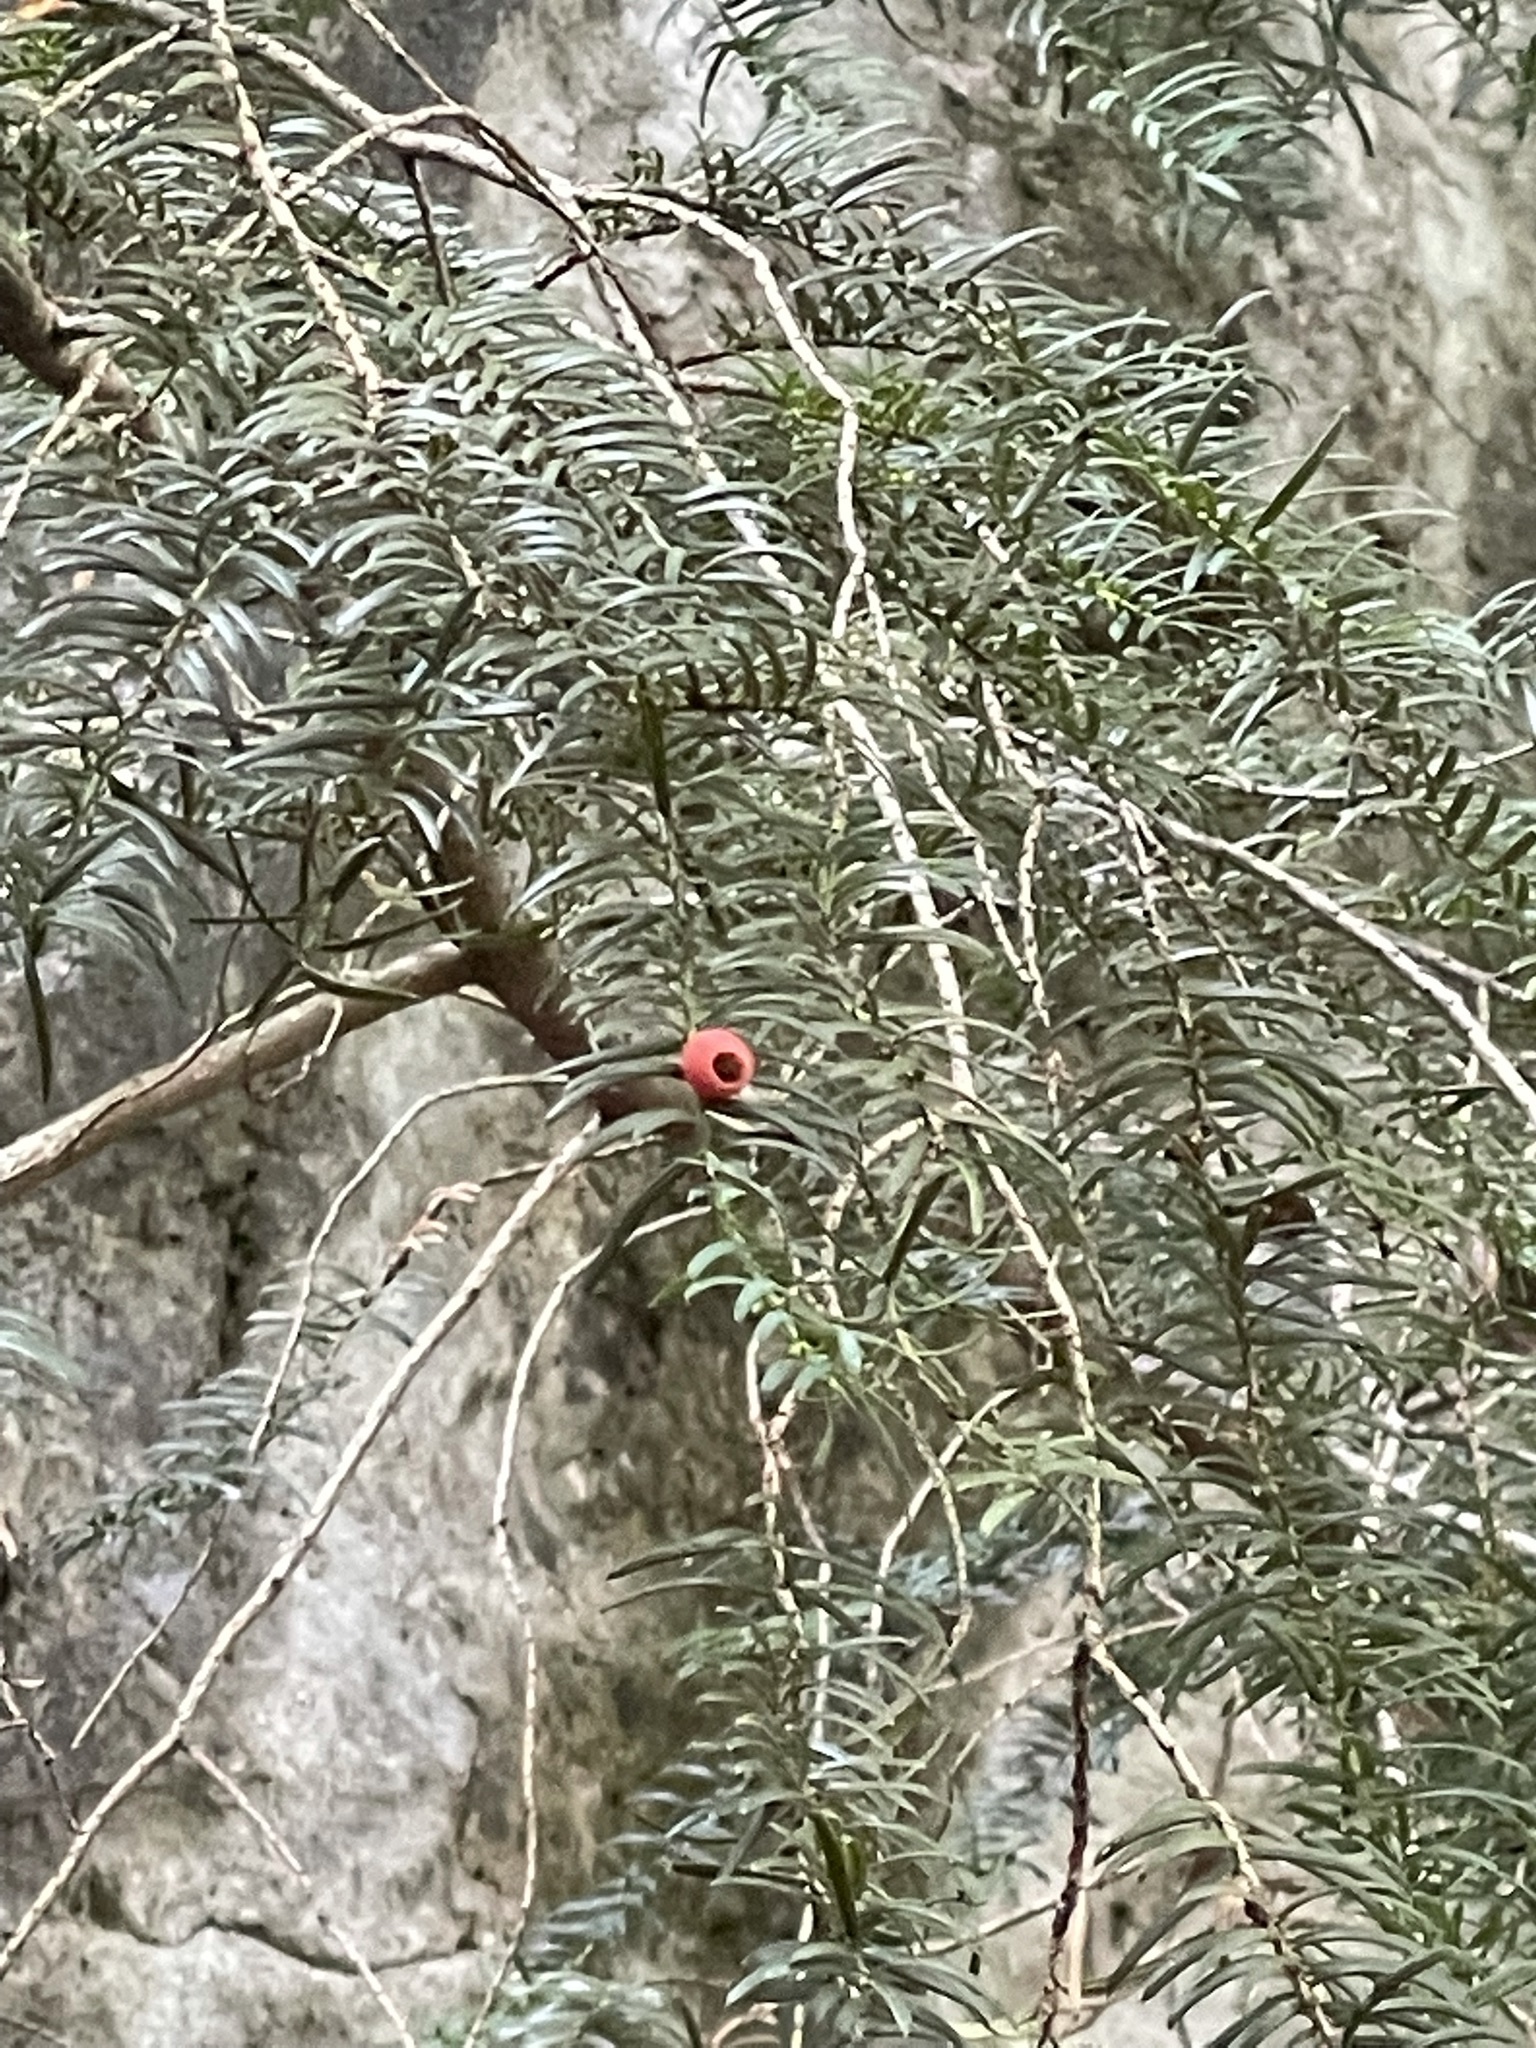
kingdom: Plantae
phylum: Tracheophyta
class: Pinopsida
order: Pinales
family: Taxaceae
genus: Taxus
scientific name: Taxus baccata
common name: Yew
